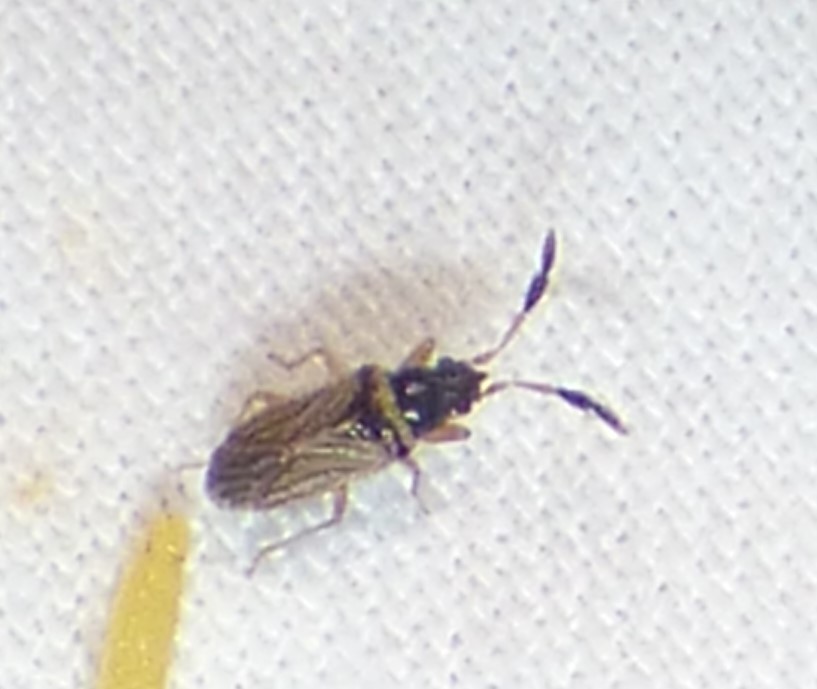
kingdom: Animalia
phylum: Arthropoda
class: Insecta
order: Hemiptera
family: Rhyparochromidae
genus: Ptochiomera
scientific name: Ptochiomera nodosa
